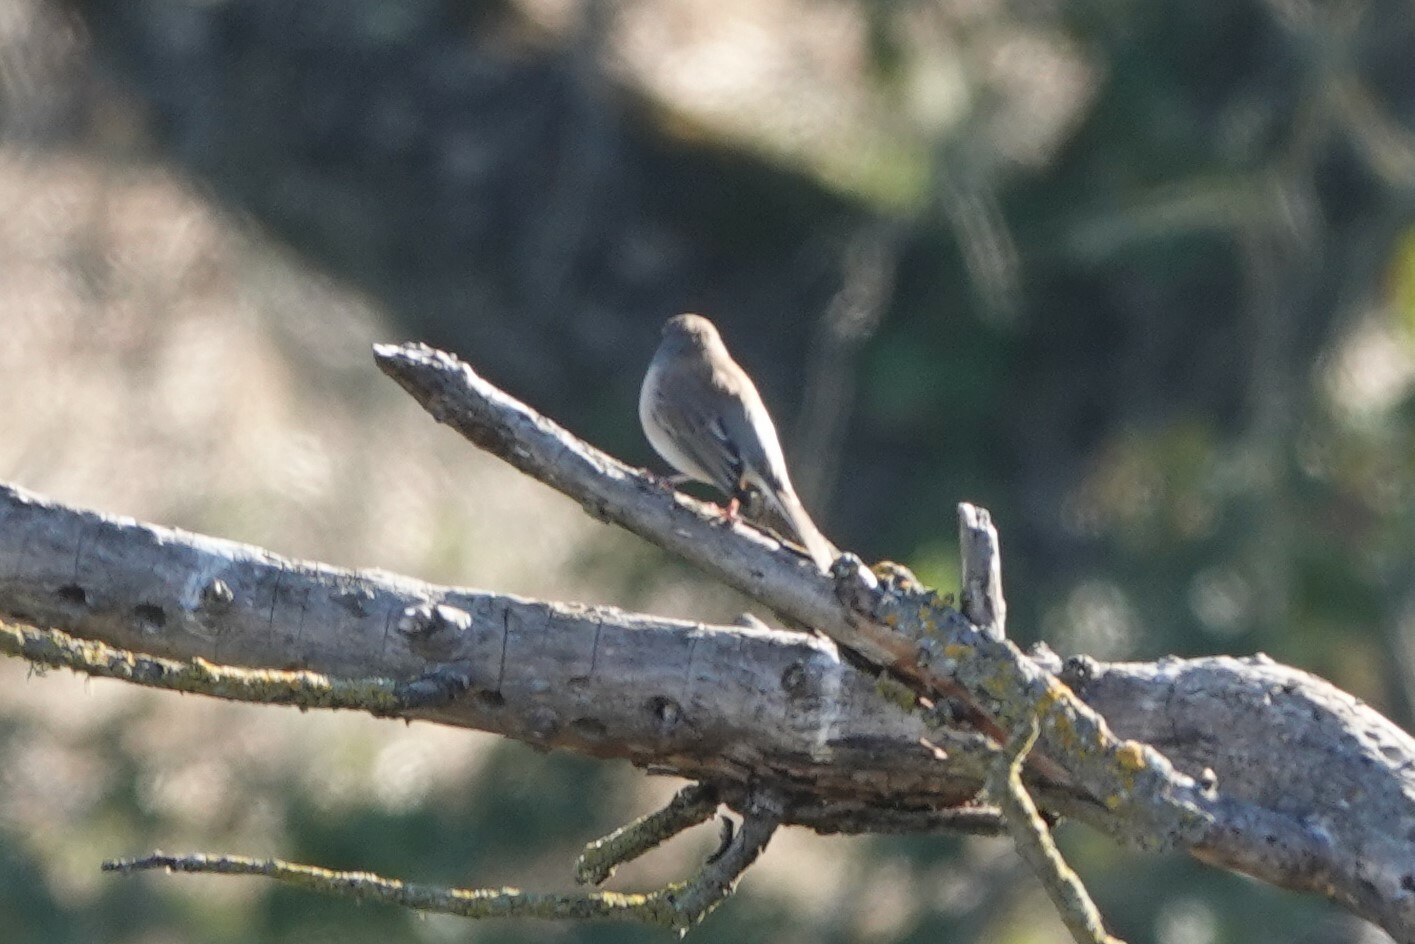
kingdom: Animalia
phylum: Chordata
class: Aves
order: Passeriformes
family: Passerellidae
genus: Junco
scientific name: Junco hyemalis
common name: Dark-eyed junco
